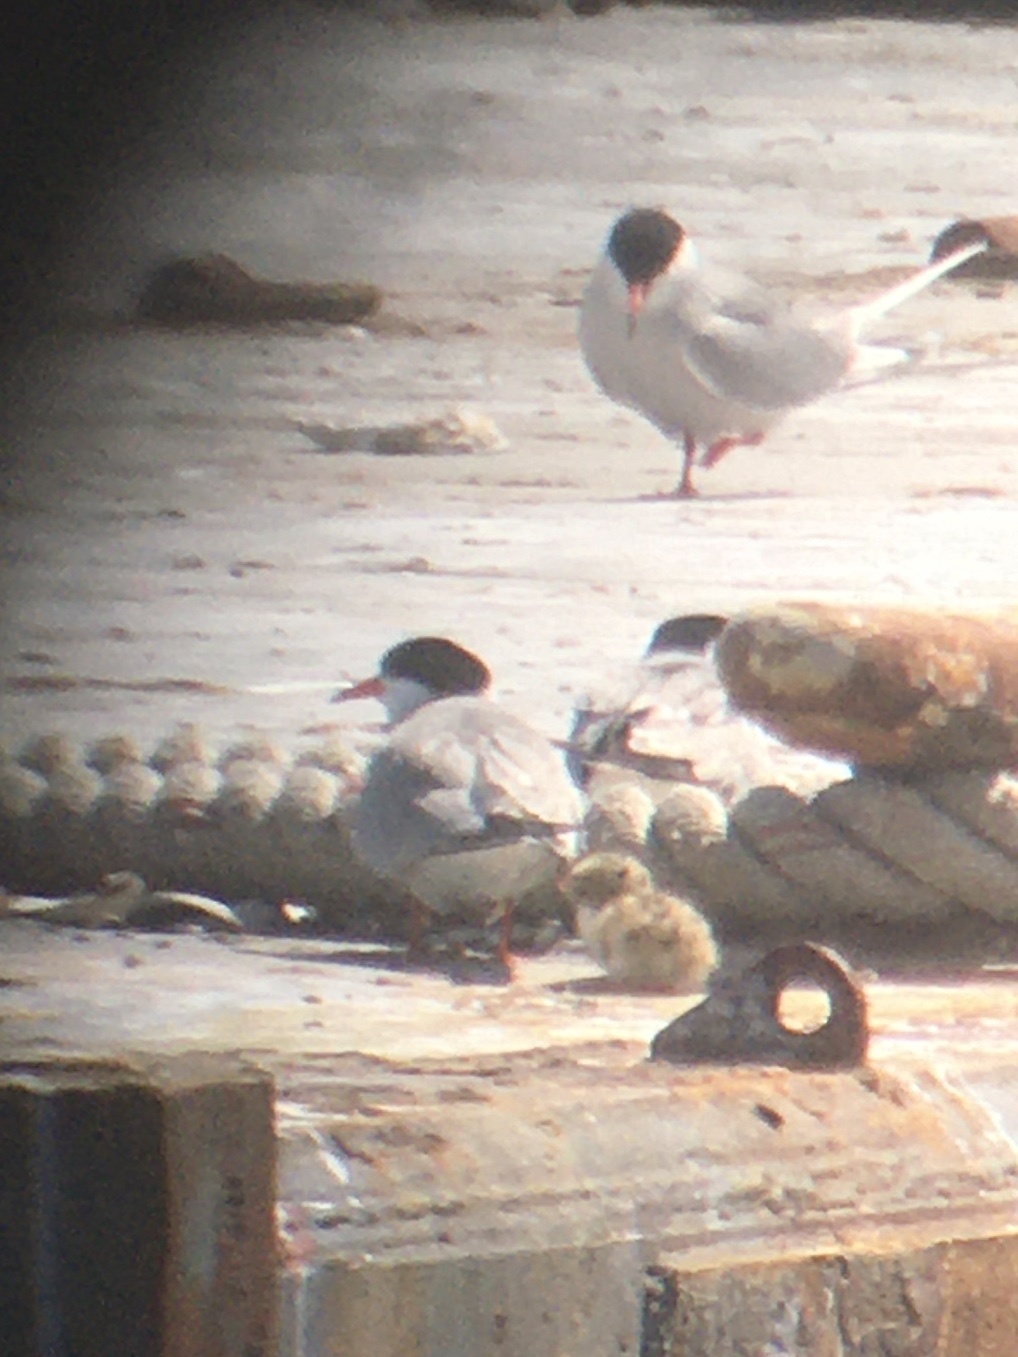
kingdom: Animalia
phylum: Chordata
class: Aves
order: Charadriiformes
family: Laridae
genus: Sterna
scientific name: Sterna hirundo
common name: Common tern
